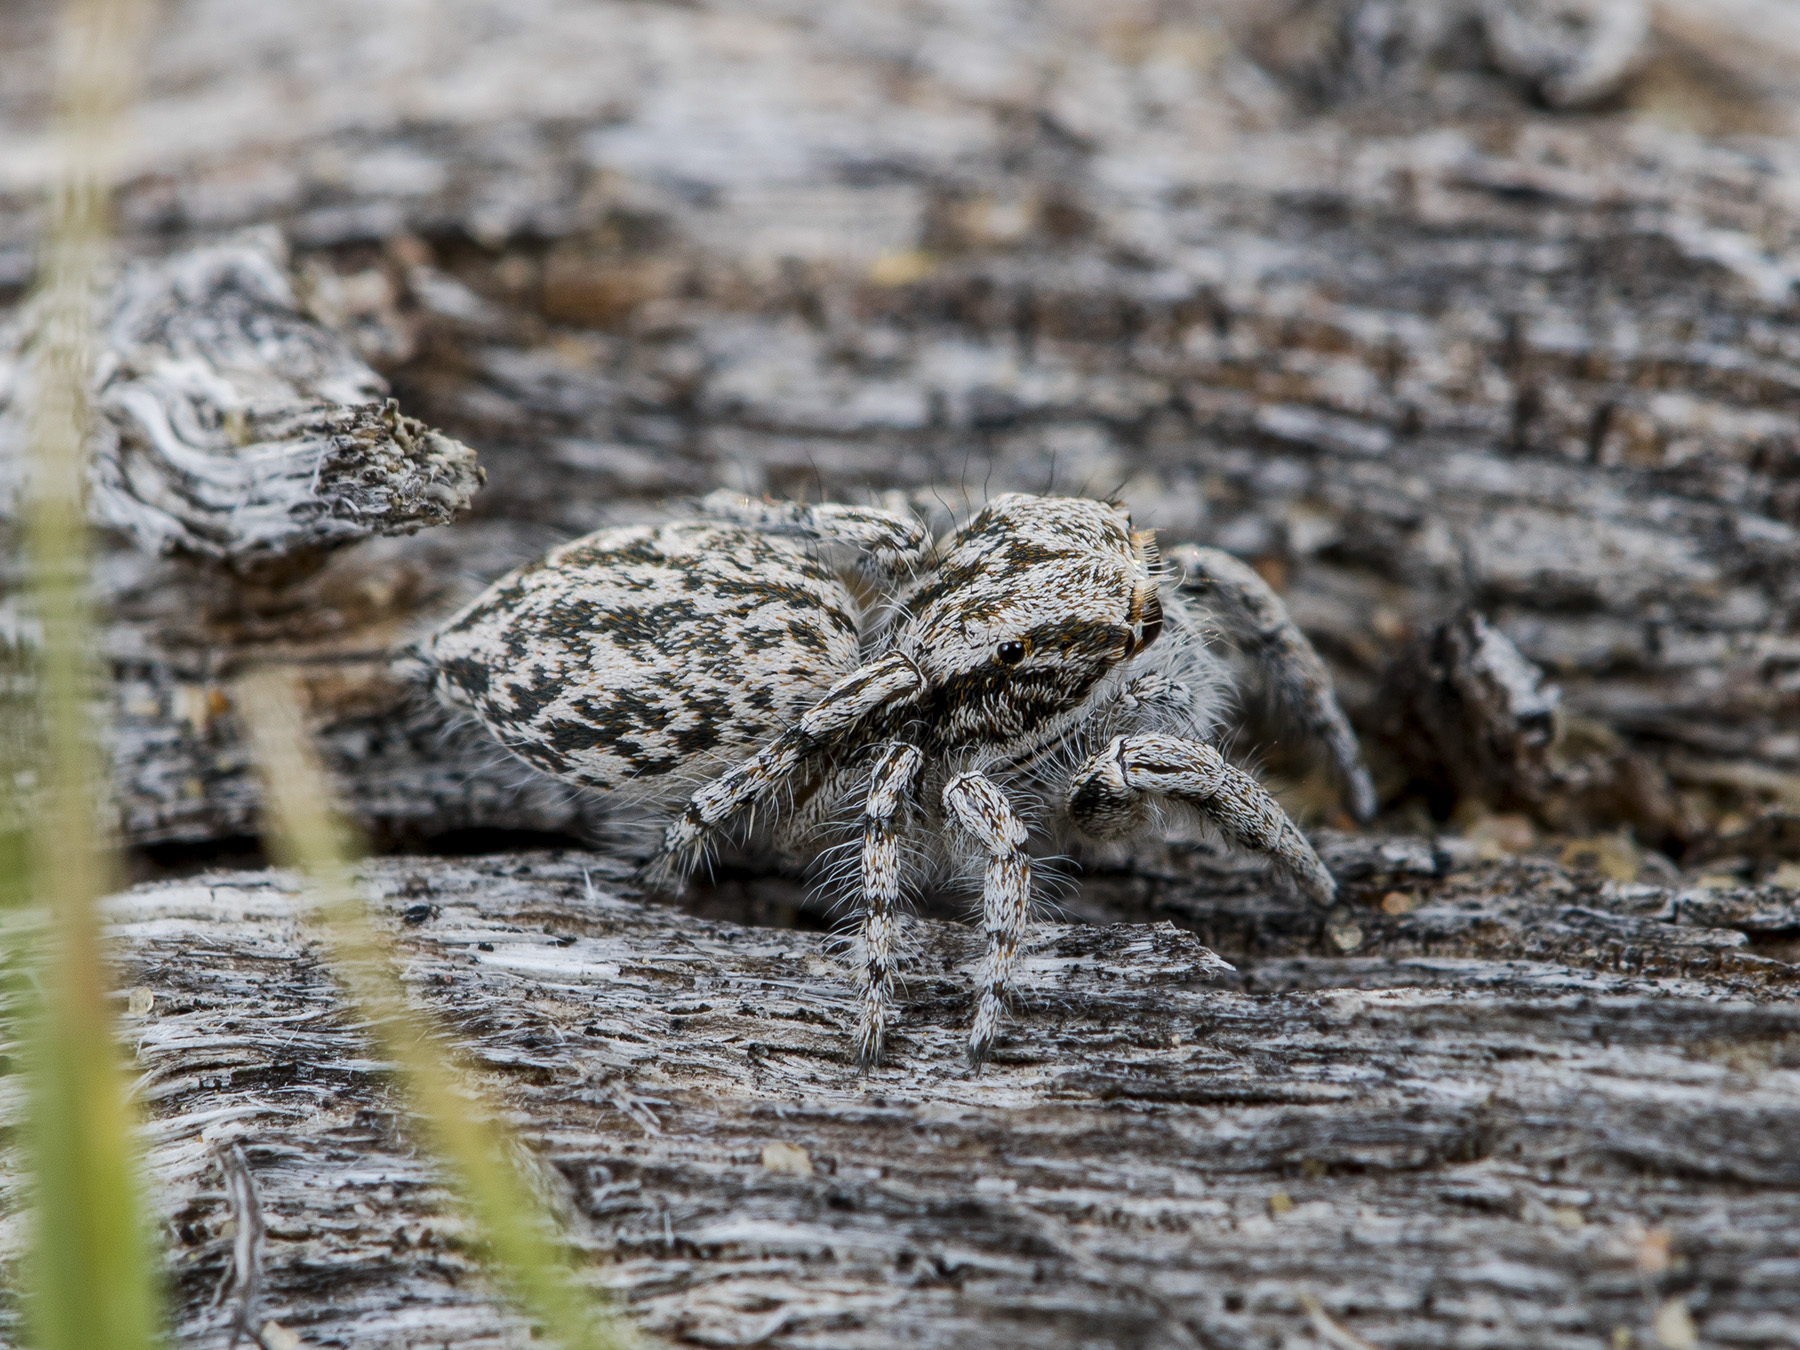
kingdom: Animalia
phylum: Arthropoda
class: Arachnida
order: Araneae
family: Salticidae
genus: Marusyllus
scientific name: Marusyllus aralicus
